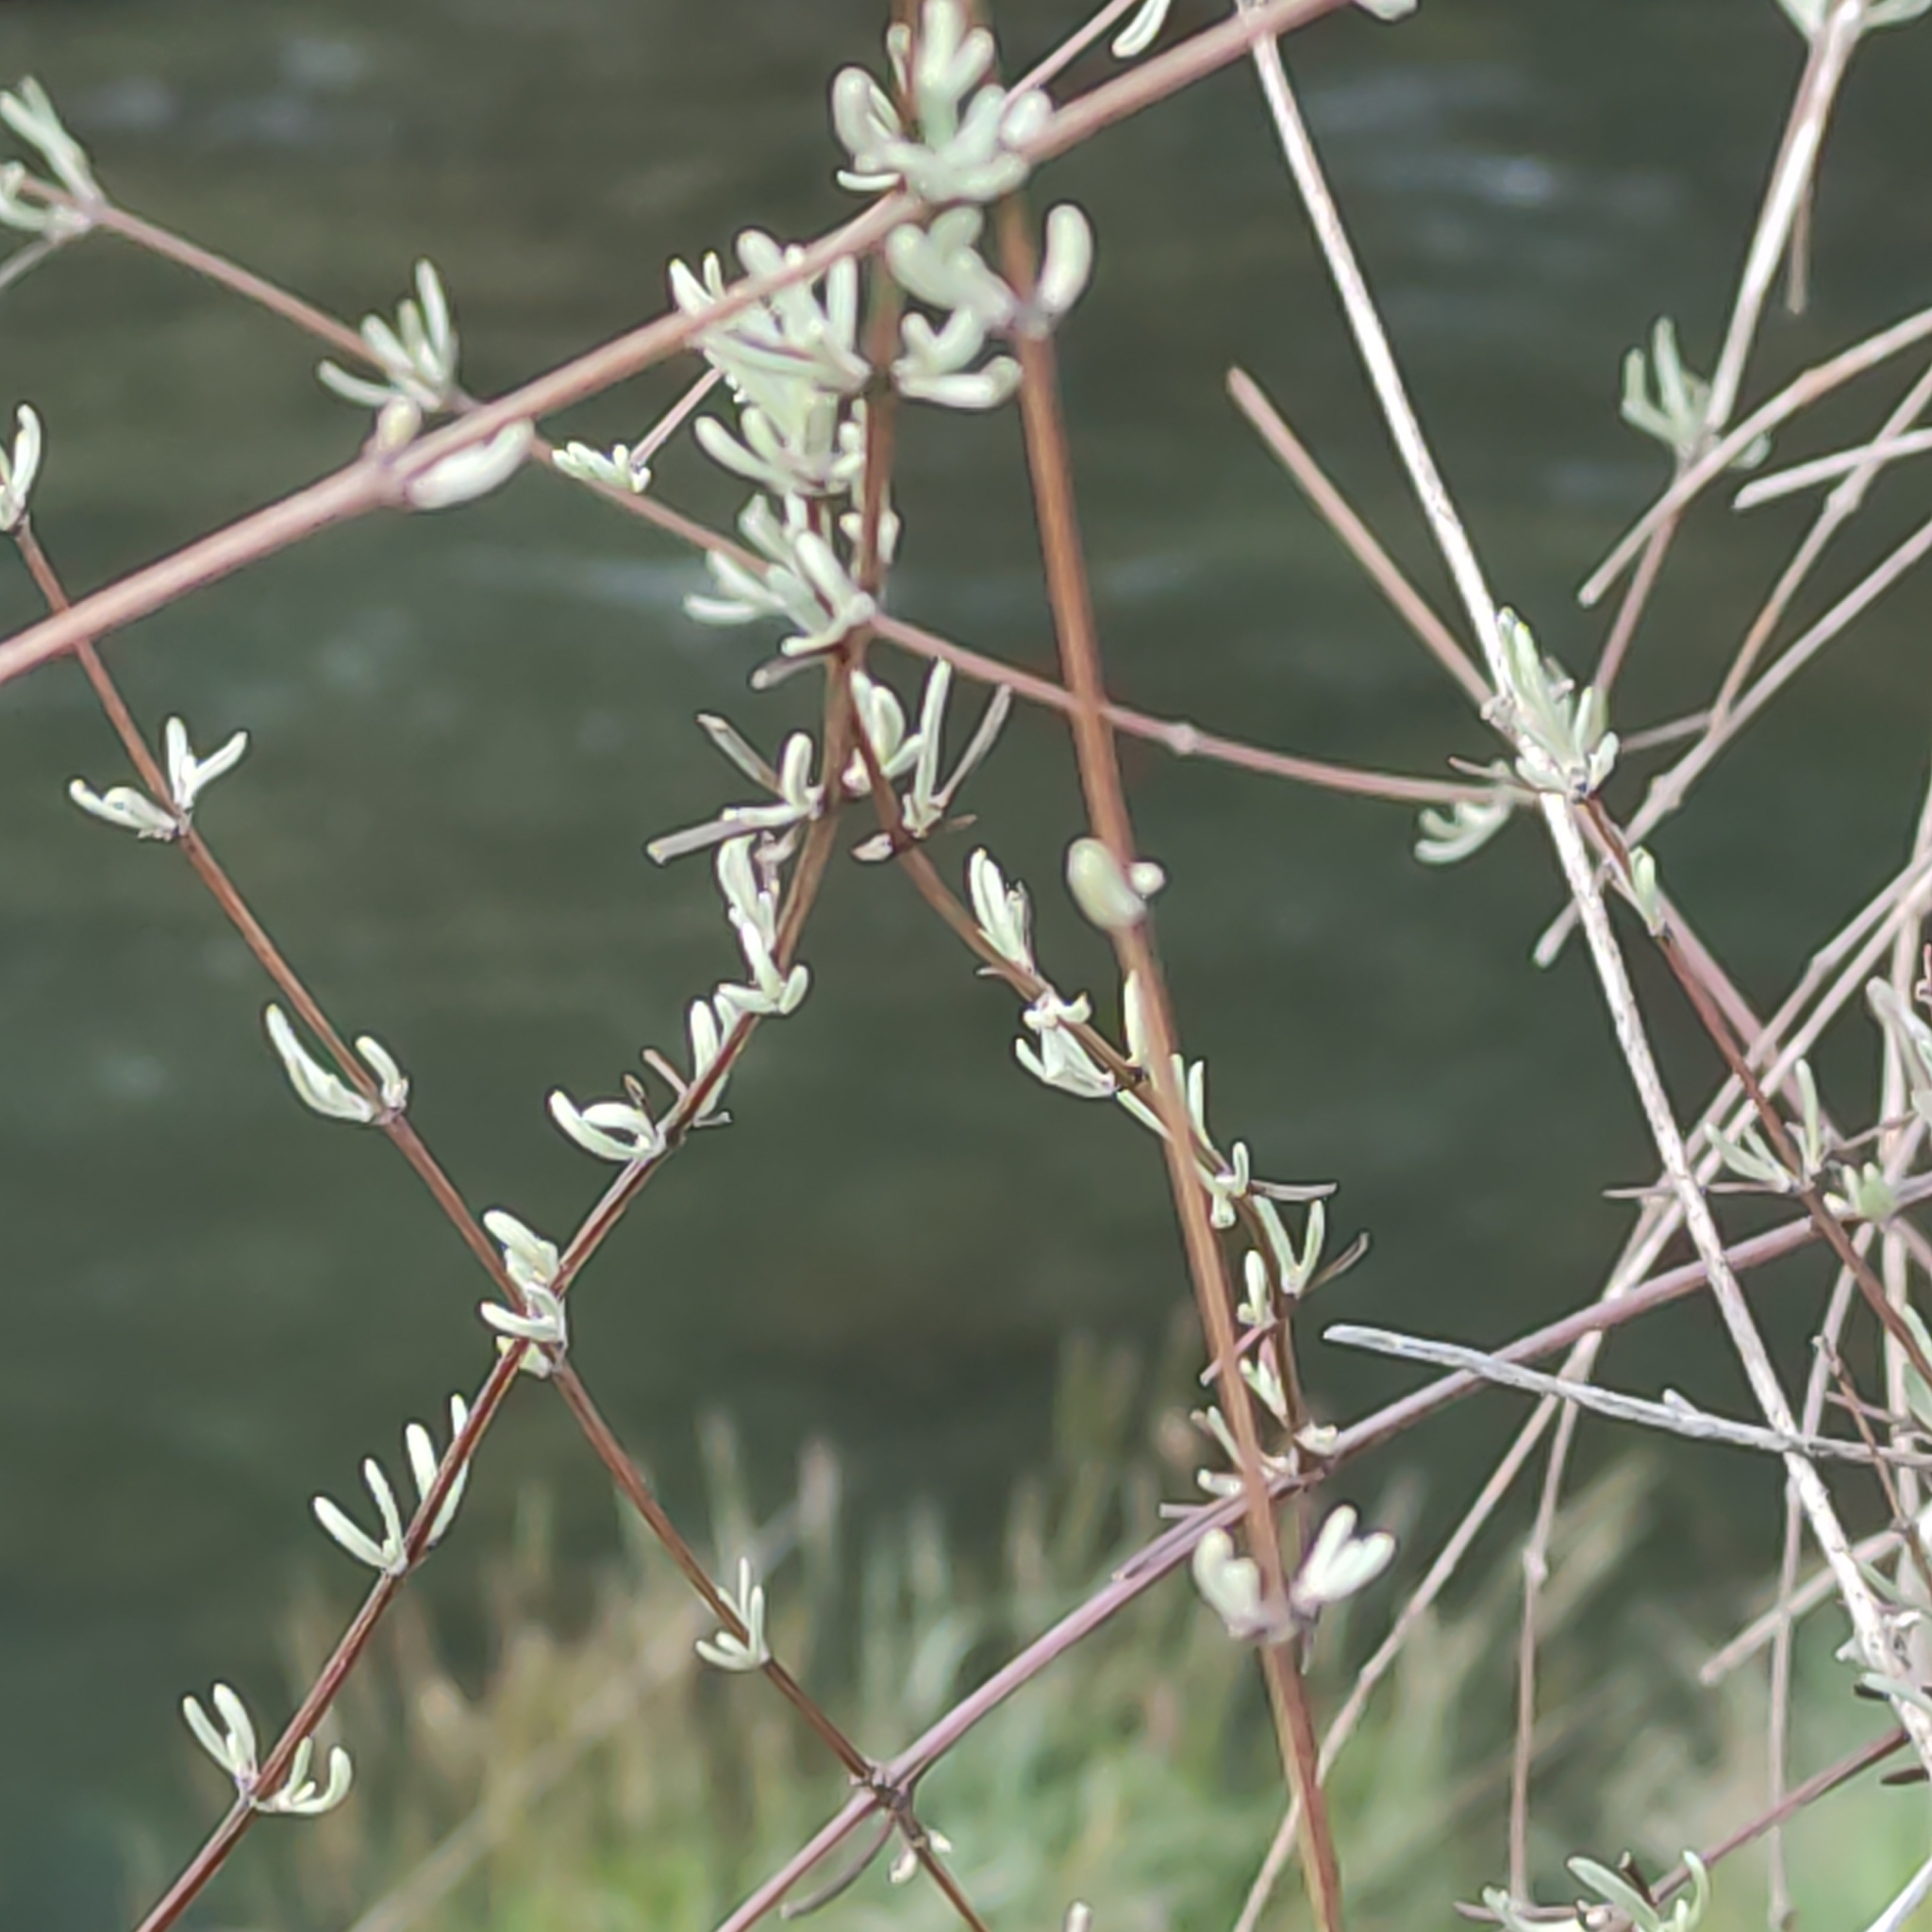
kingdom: Plantae
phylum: Tracheophyta
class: Magnoliopsida
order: Asterales
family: Asteraceae
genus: Olearia
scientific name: Olearia lineata
